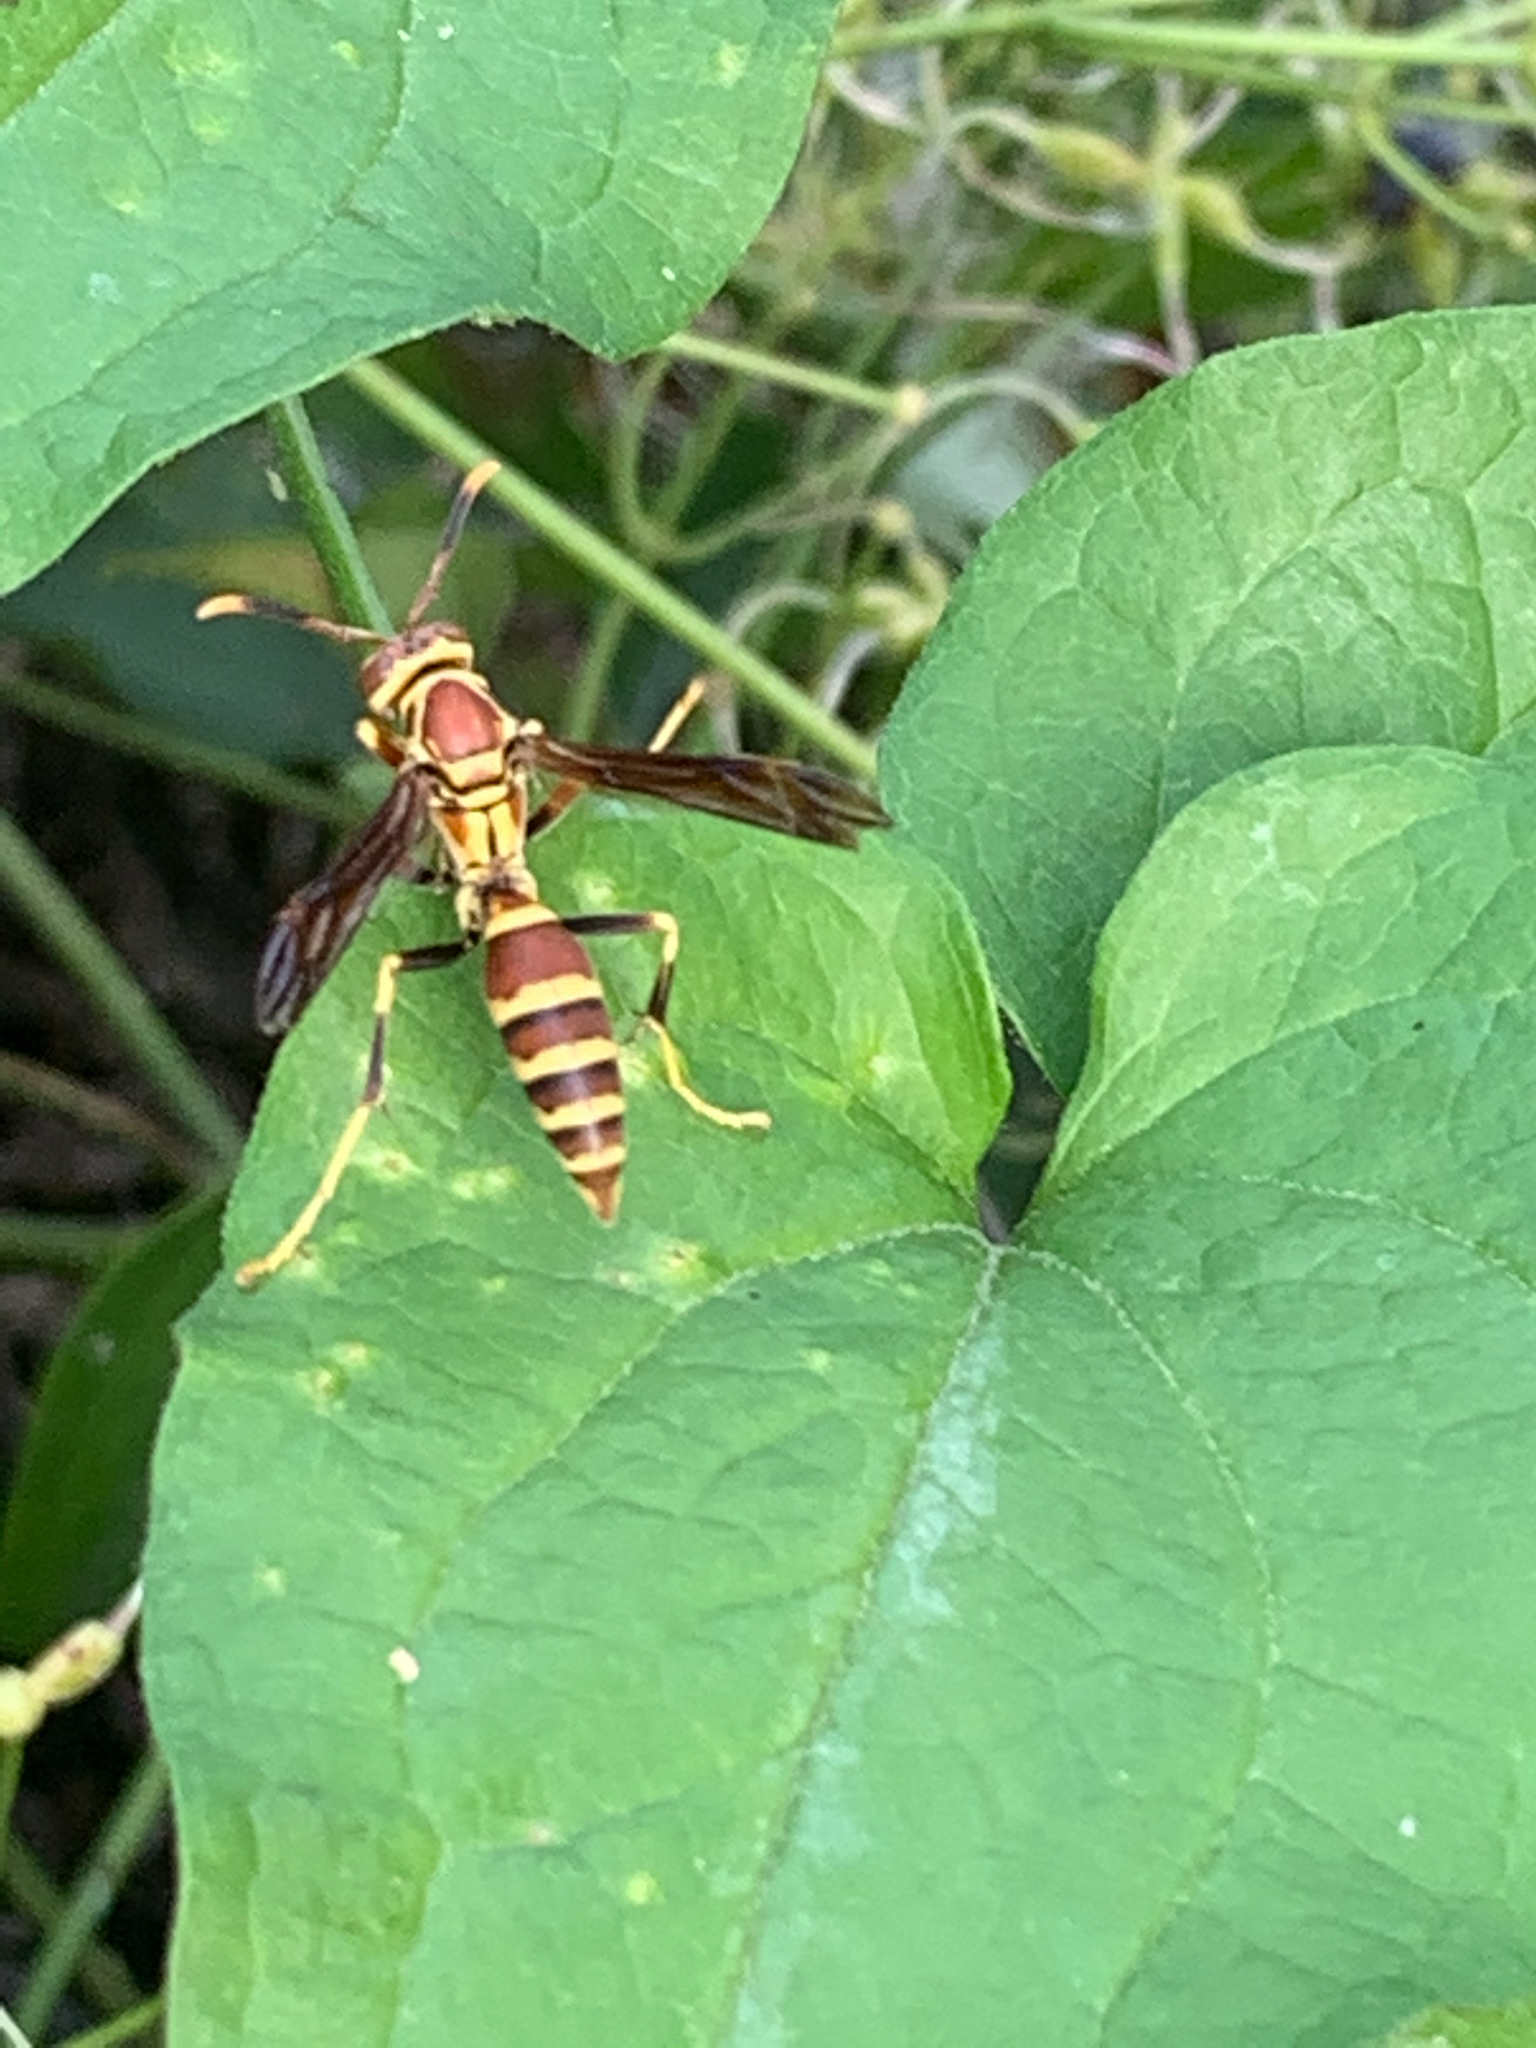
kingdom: Animalia
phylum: Arthropoda
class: Insecta
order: Hymenoptera
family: Eumenidae
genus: Polistes
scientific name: Polistes exclamans
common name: Paper wasp
